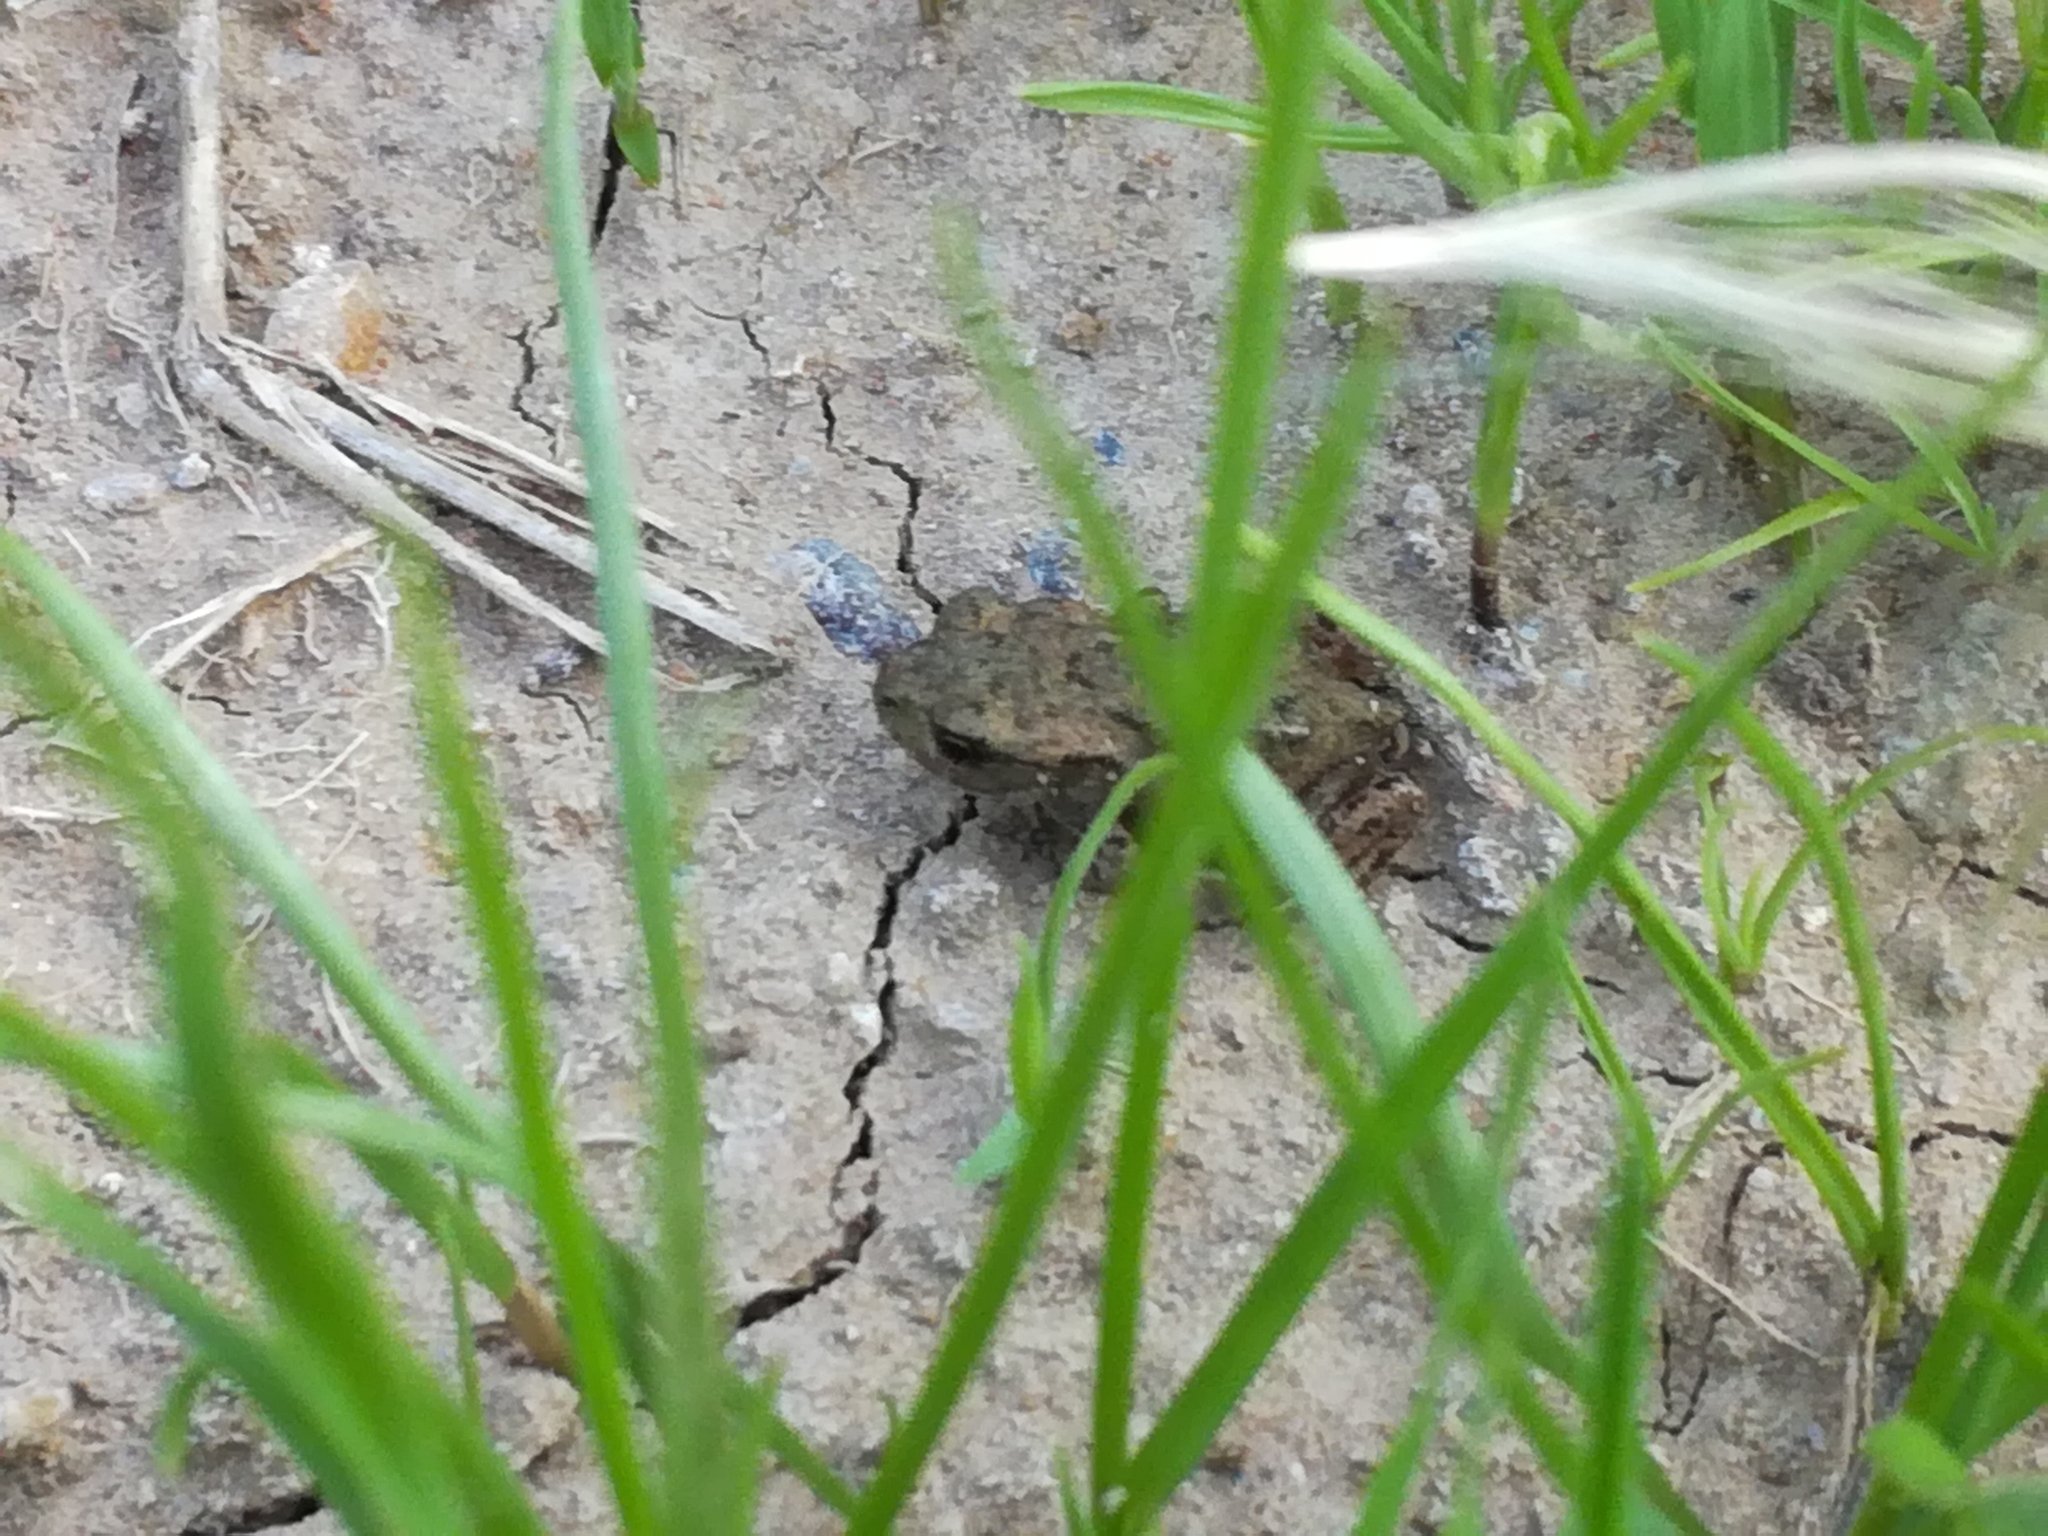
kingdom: Animalia
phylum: Chordata
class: Amphibia
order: Anura
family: Bufonidae
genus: Bufo
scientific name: Bufo bufo
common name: Common toad
